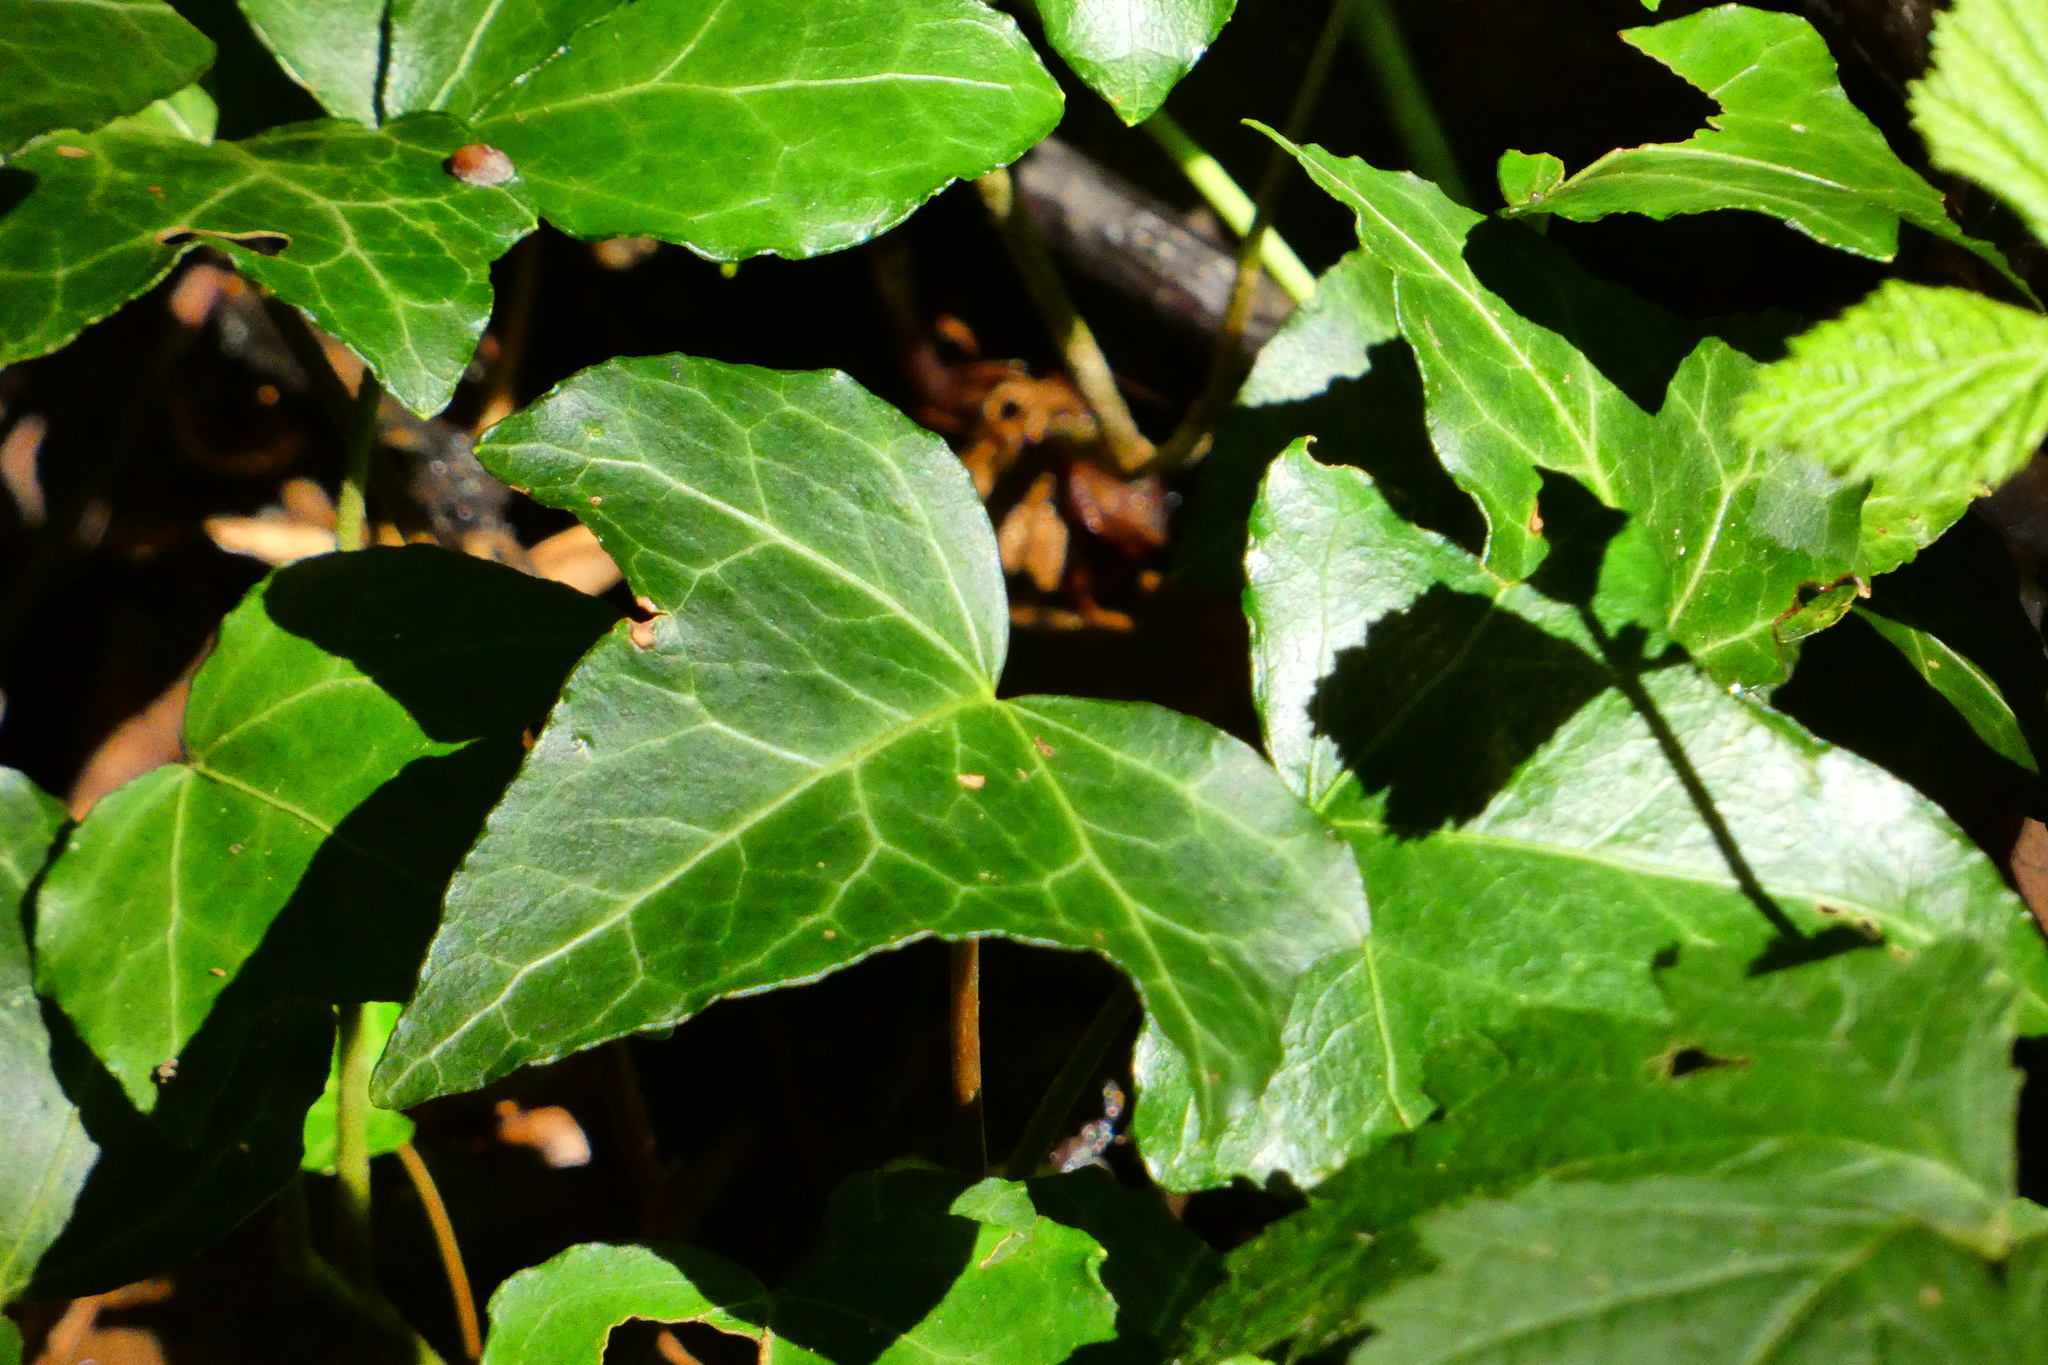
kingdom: Plantae
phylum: Tracheophyta
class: Magnoliopsida
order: Apiales
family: Araliaceae
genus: Hedera
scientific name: Hedera helix
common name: Ivy
